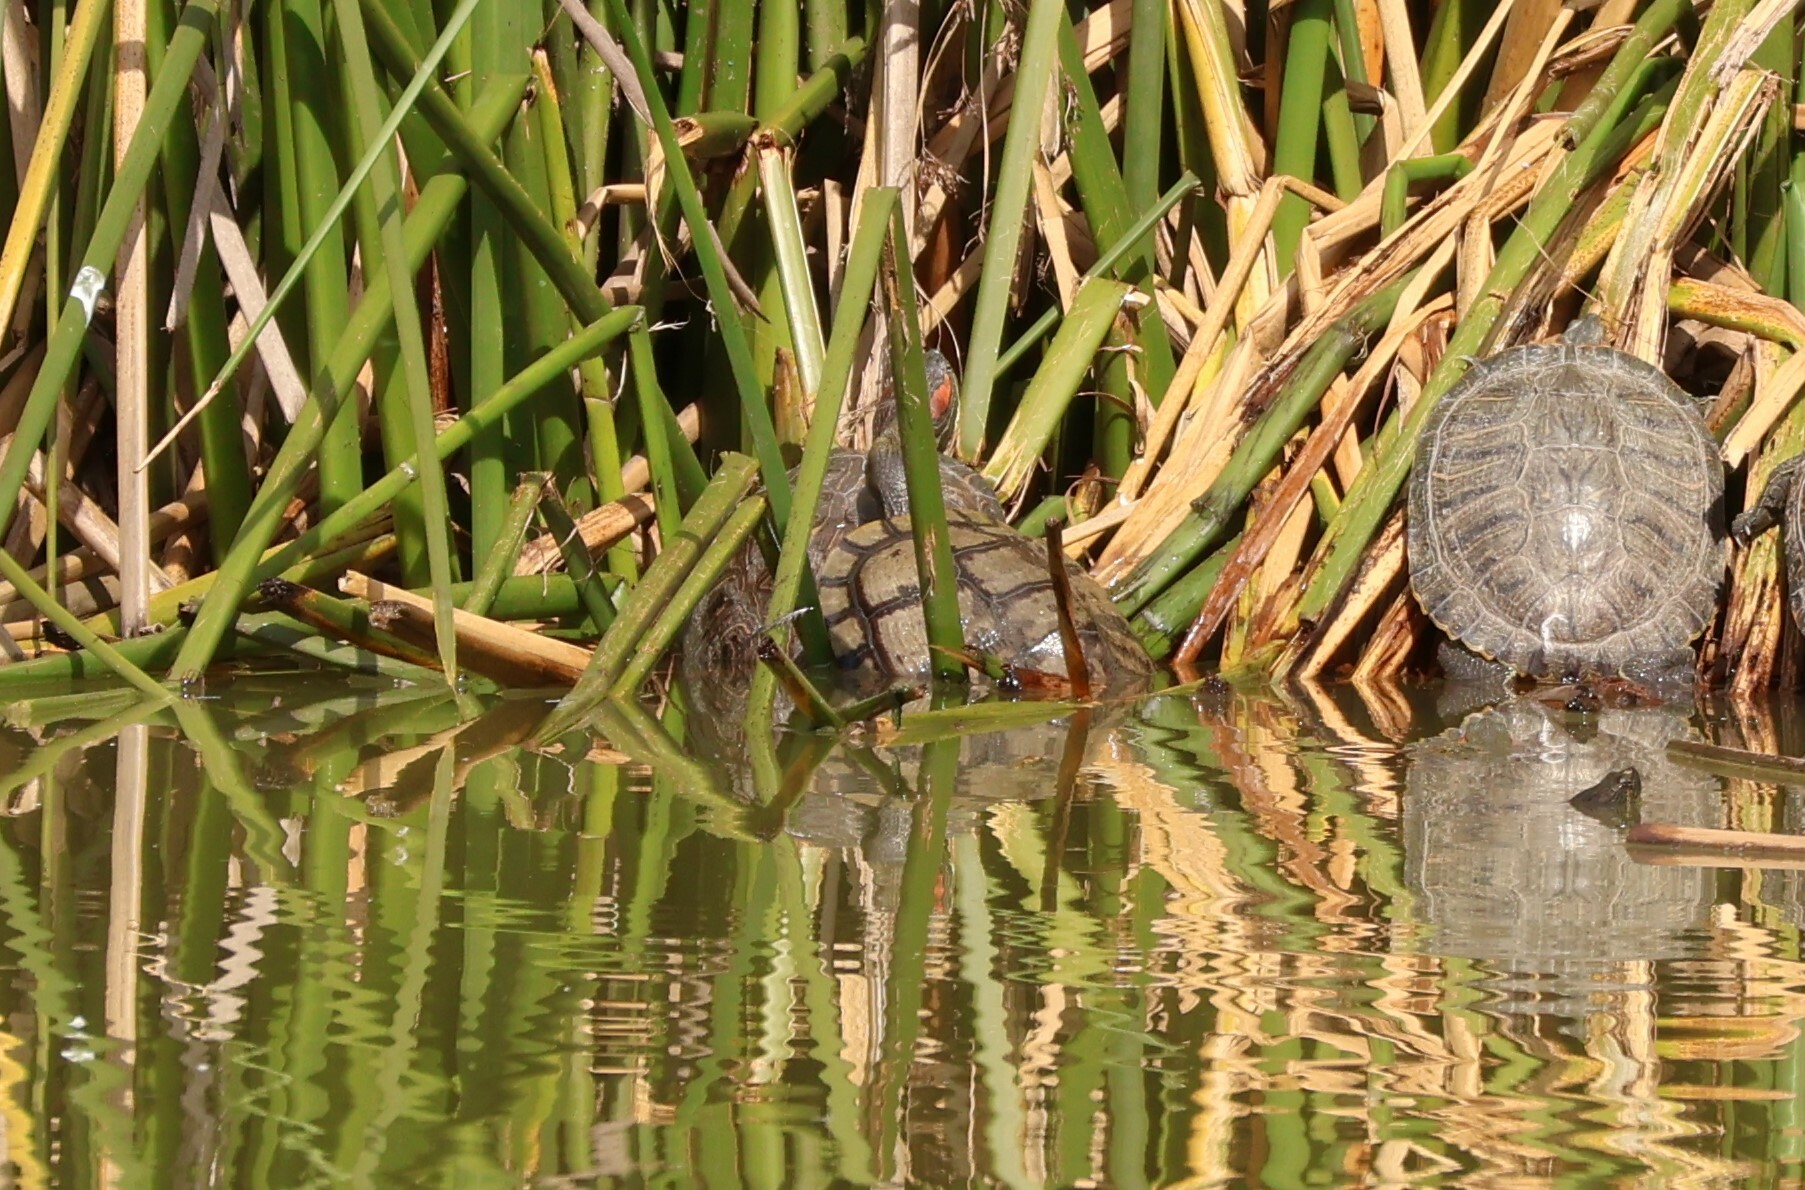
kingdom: Animalia
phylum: Chordata
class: Testudines
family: Emydidae
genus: Trachemys
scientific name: Trachemys scripta
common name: Slider
